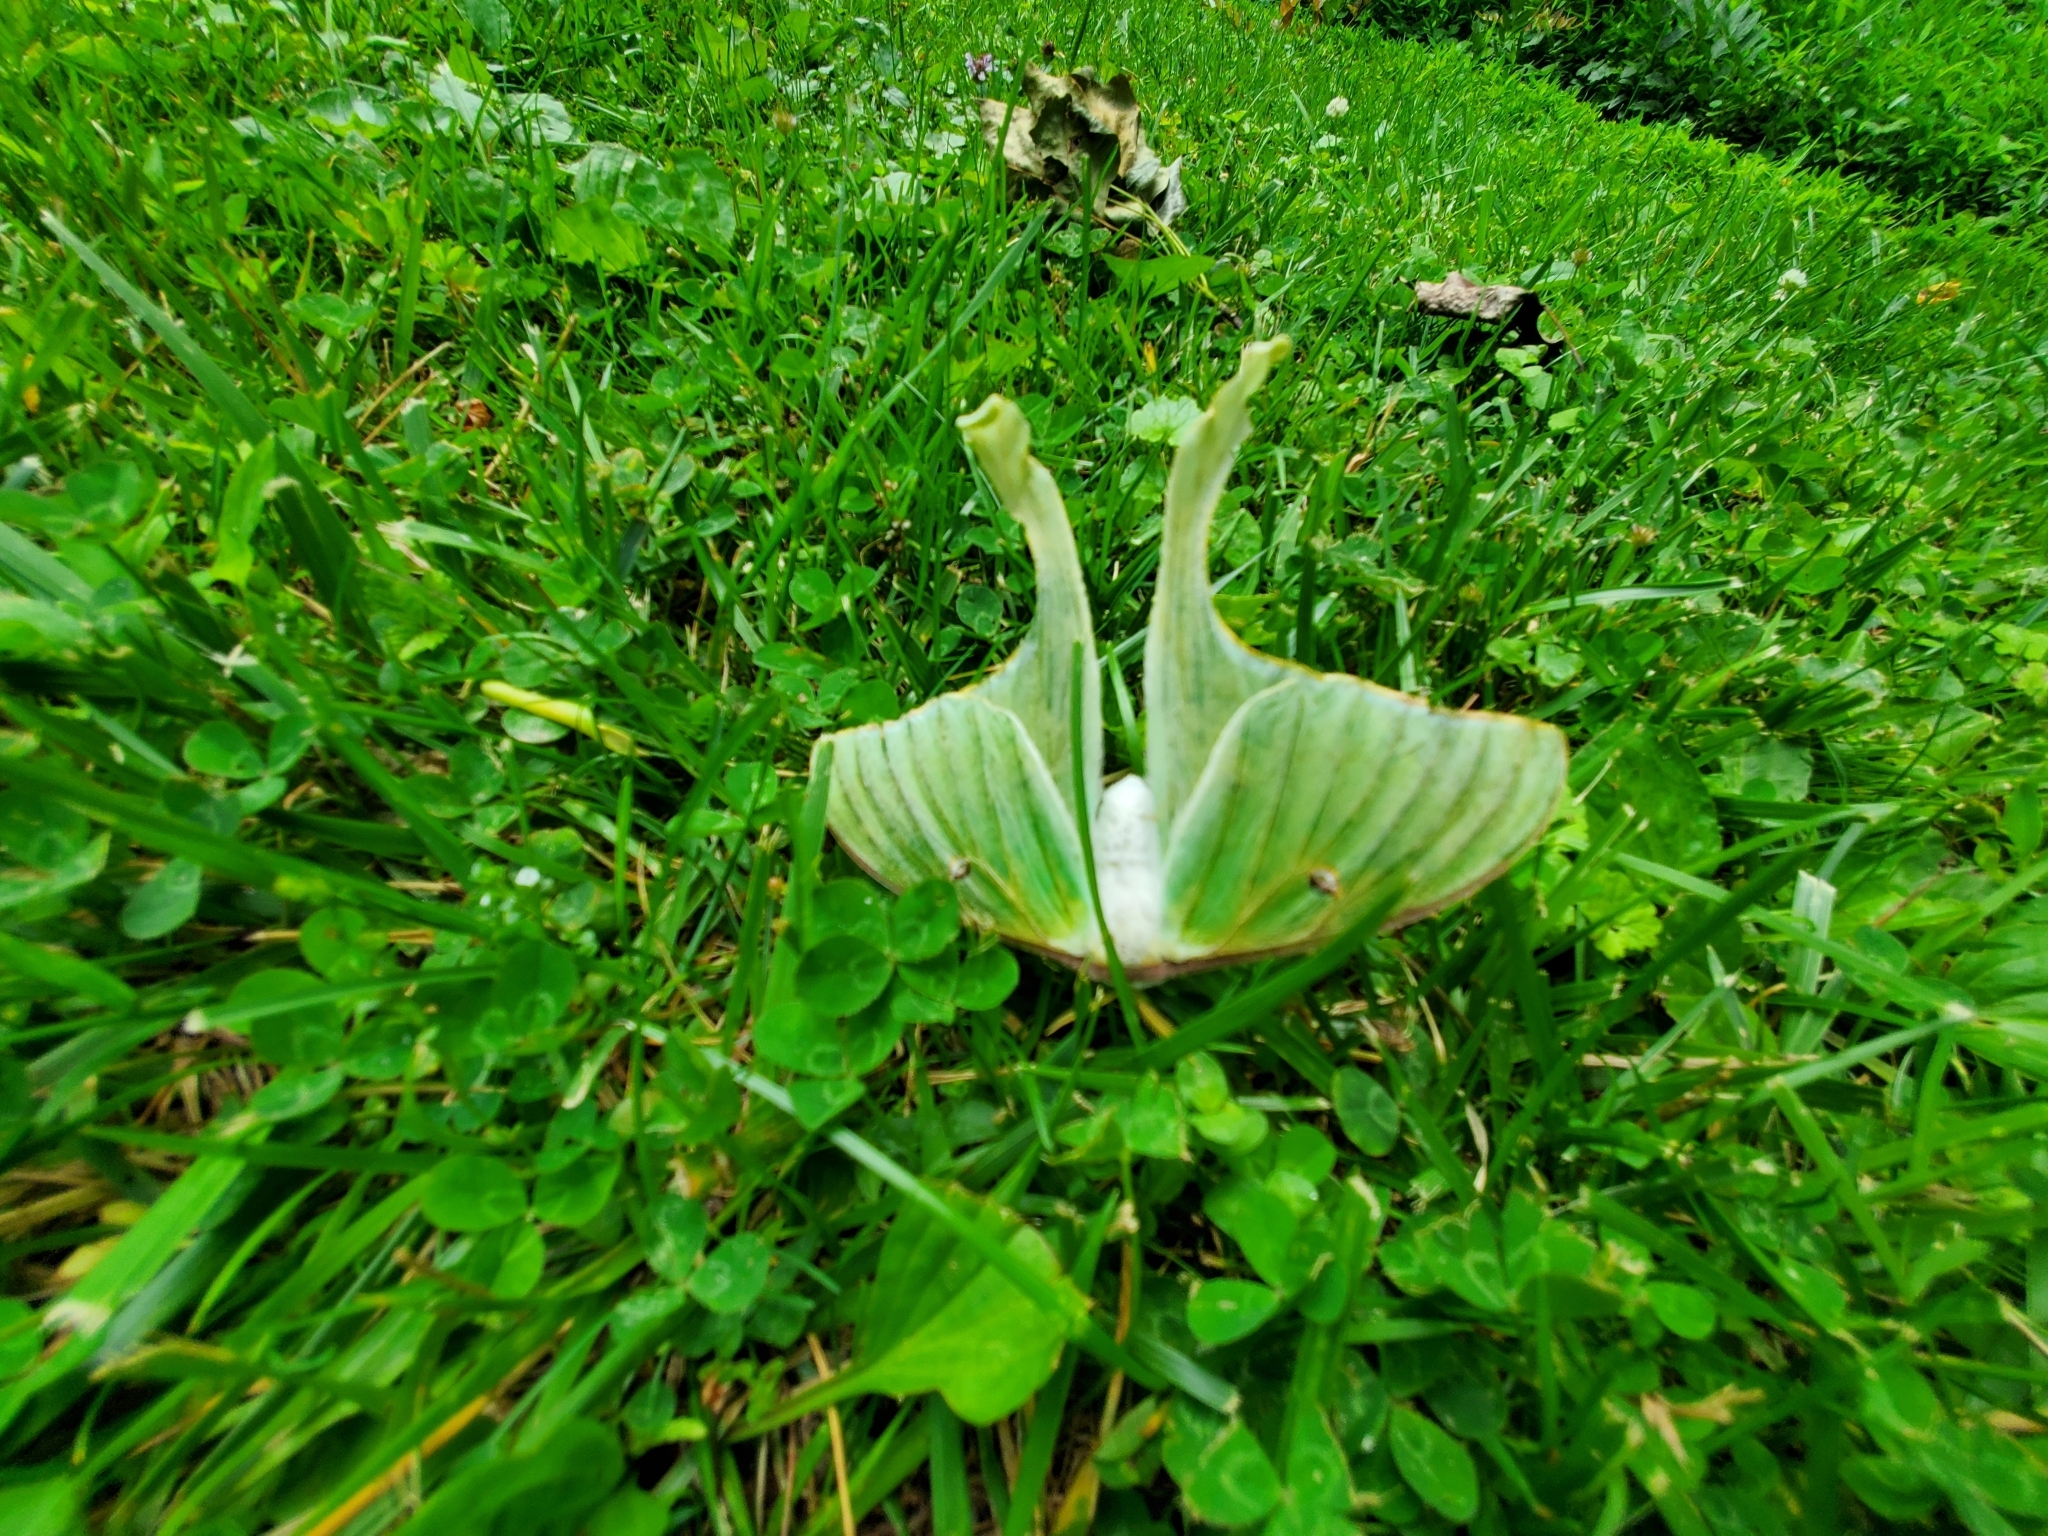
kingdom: Animalia
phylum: Arthropoda
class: Insecta
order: Lepidoptera
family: Saturniidae
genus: Actias
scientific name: Actias luna
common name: Luna moth
